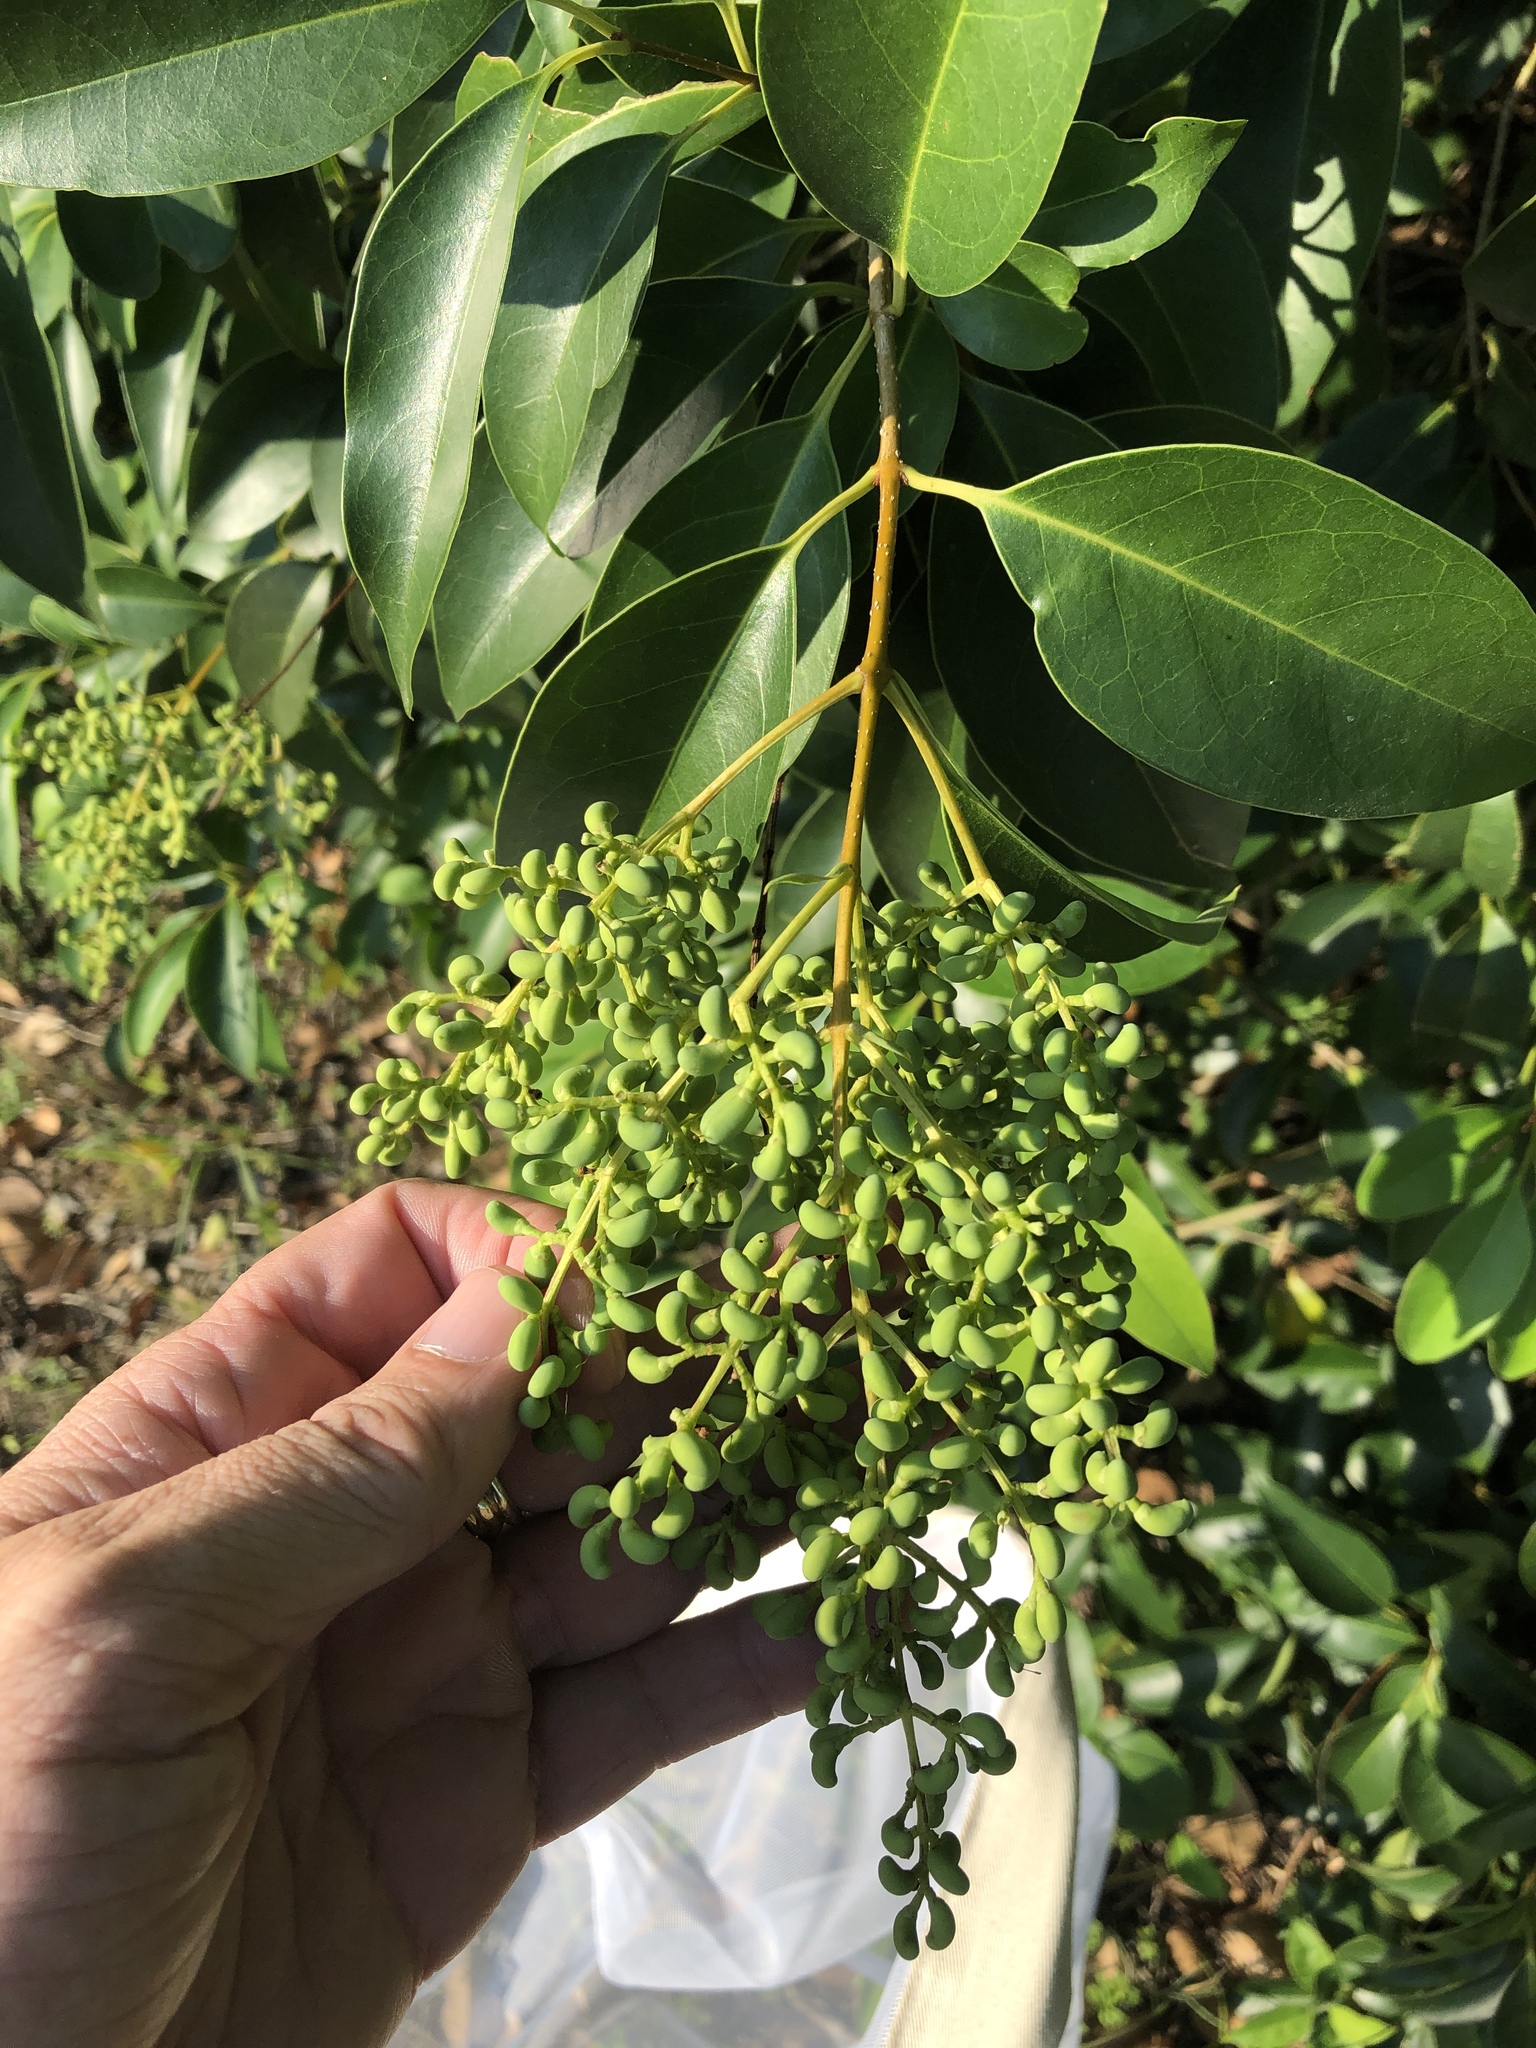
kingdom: Plantae
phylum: Tracheophyta
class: Magnoliopsida
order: Lamiales
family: Oleaceae
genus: Ligustrum
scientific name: Ligustrum lucidum
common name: Glossy privet
